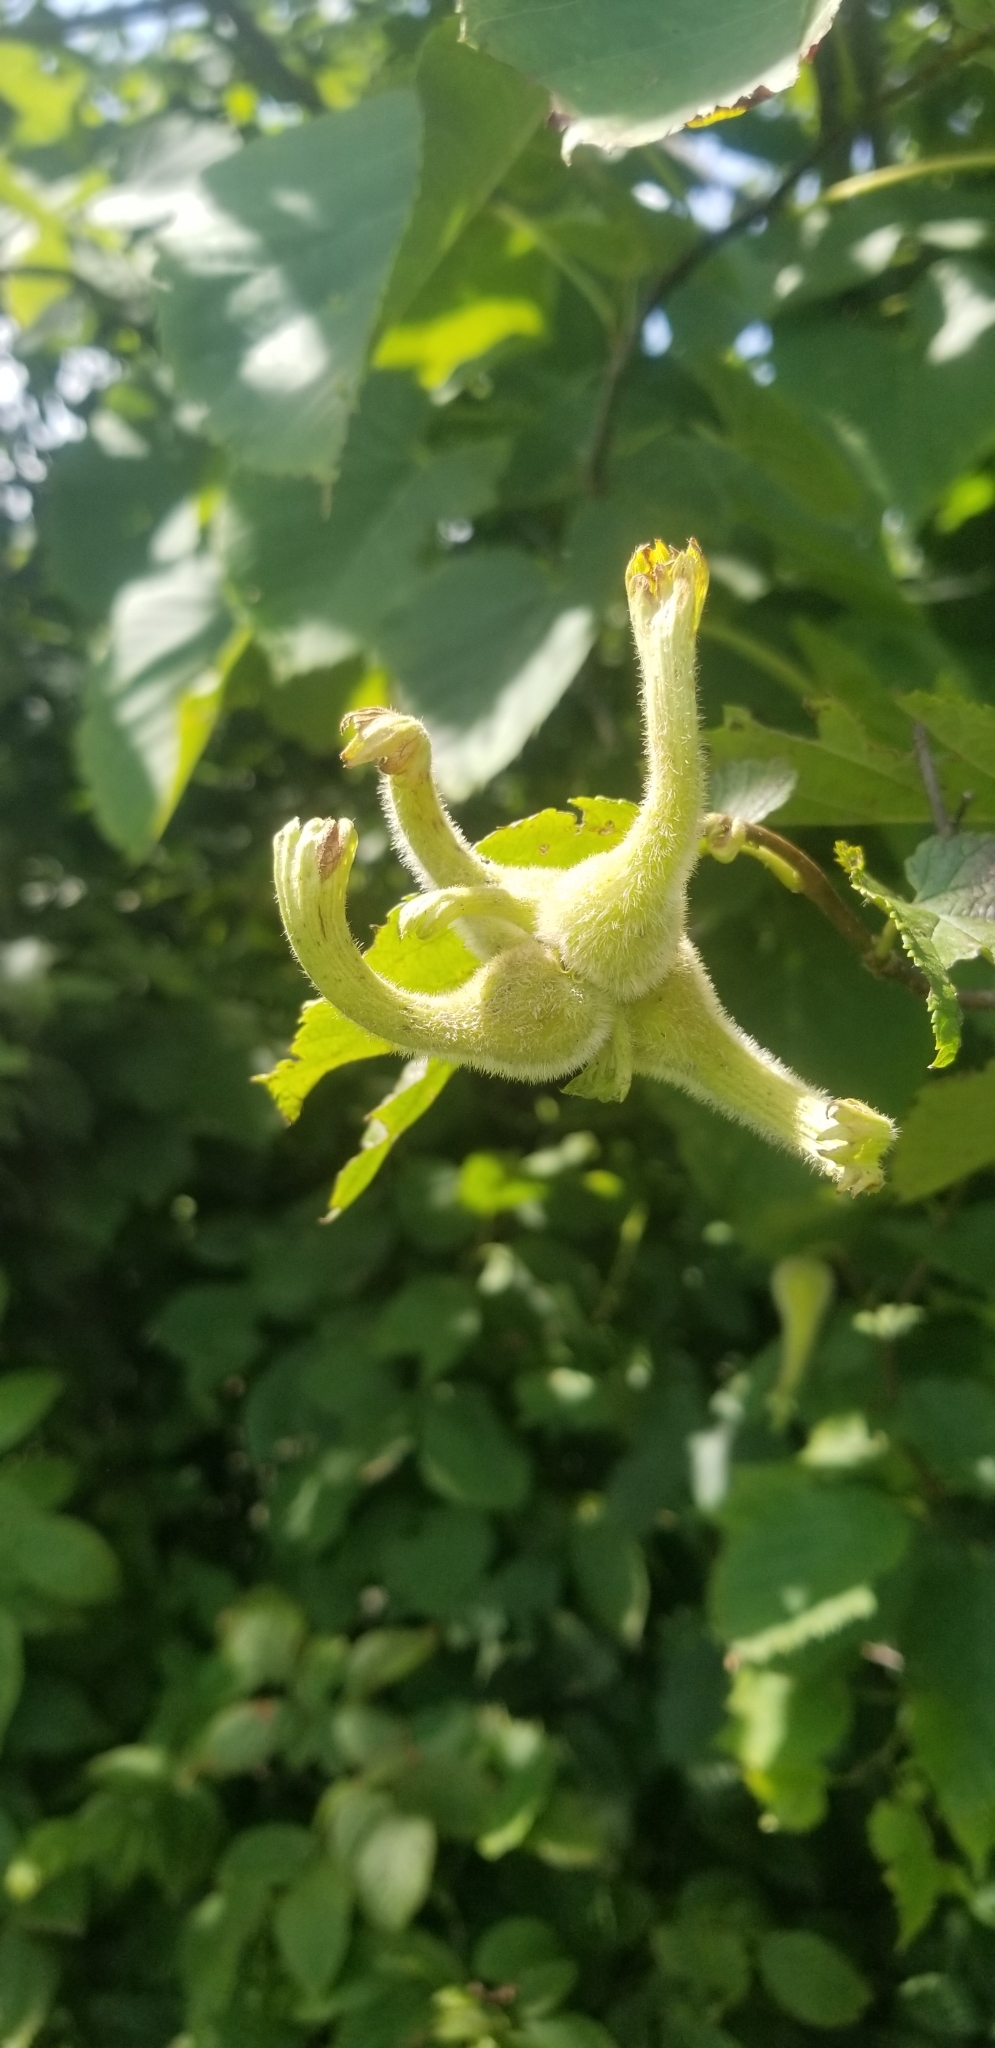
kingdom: Plantae
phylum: Tracheophyta
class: Magnoliopsida
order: Fagales
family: Betulaceae
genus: Corylus
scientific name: Corylus cornuta
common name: Beaked hazel
